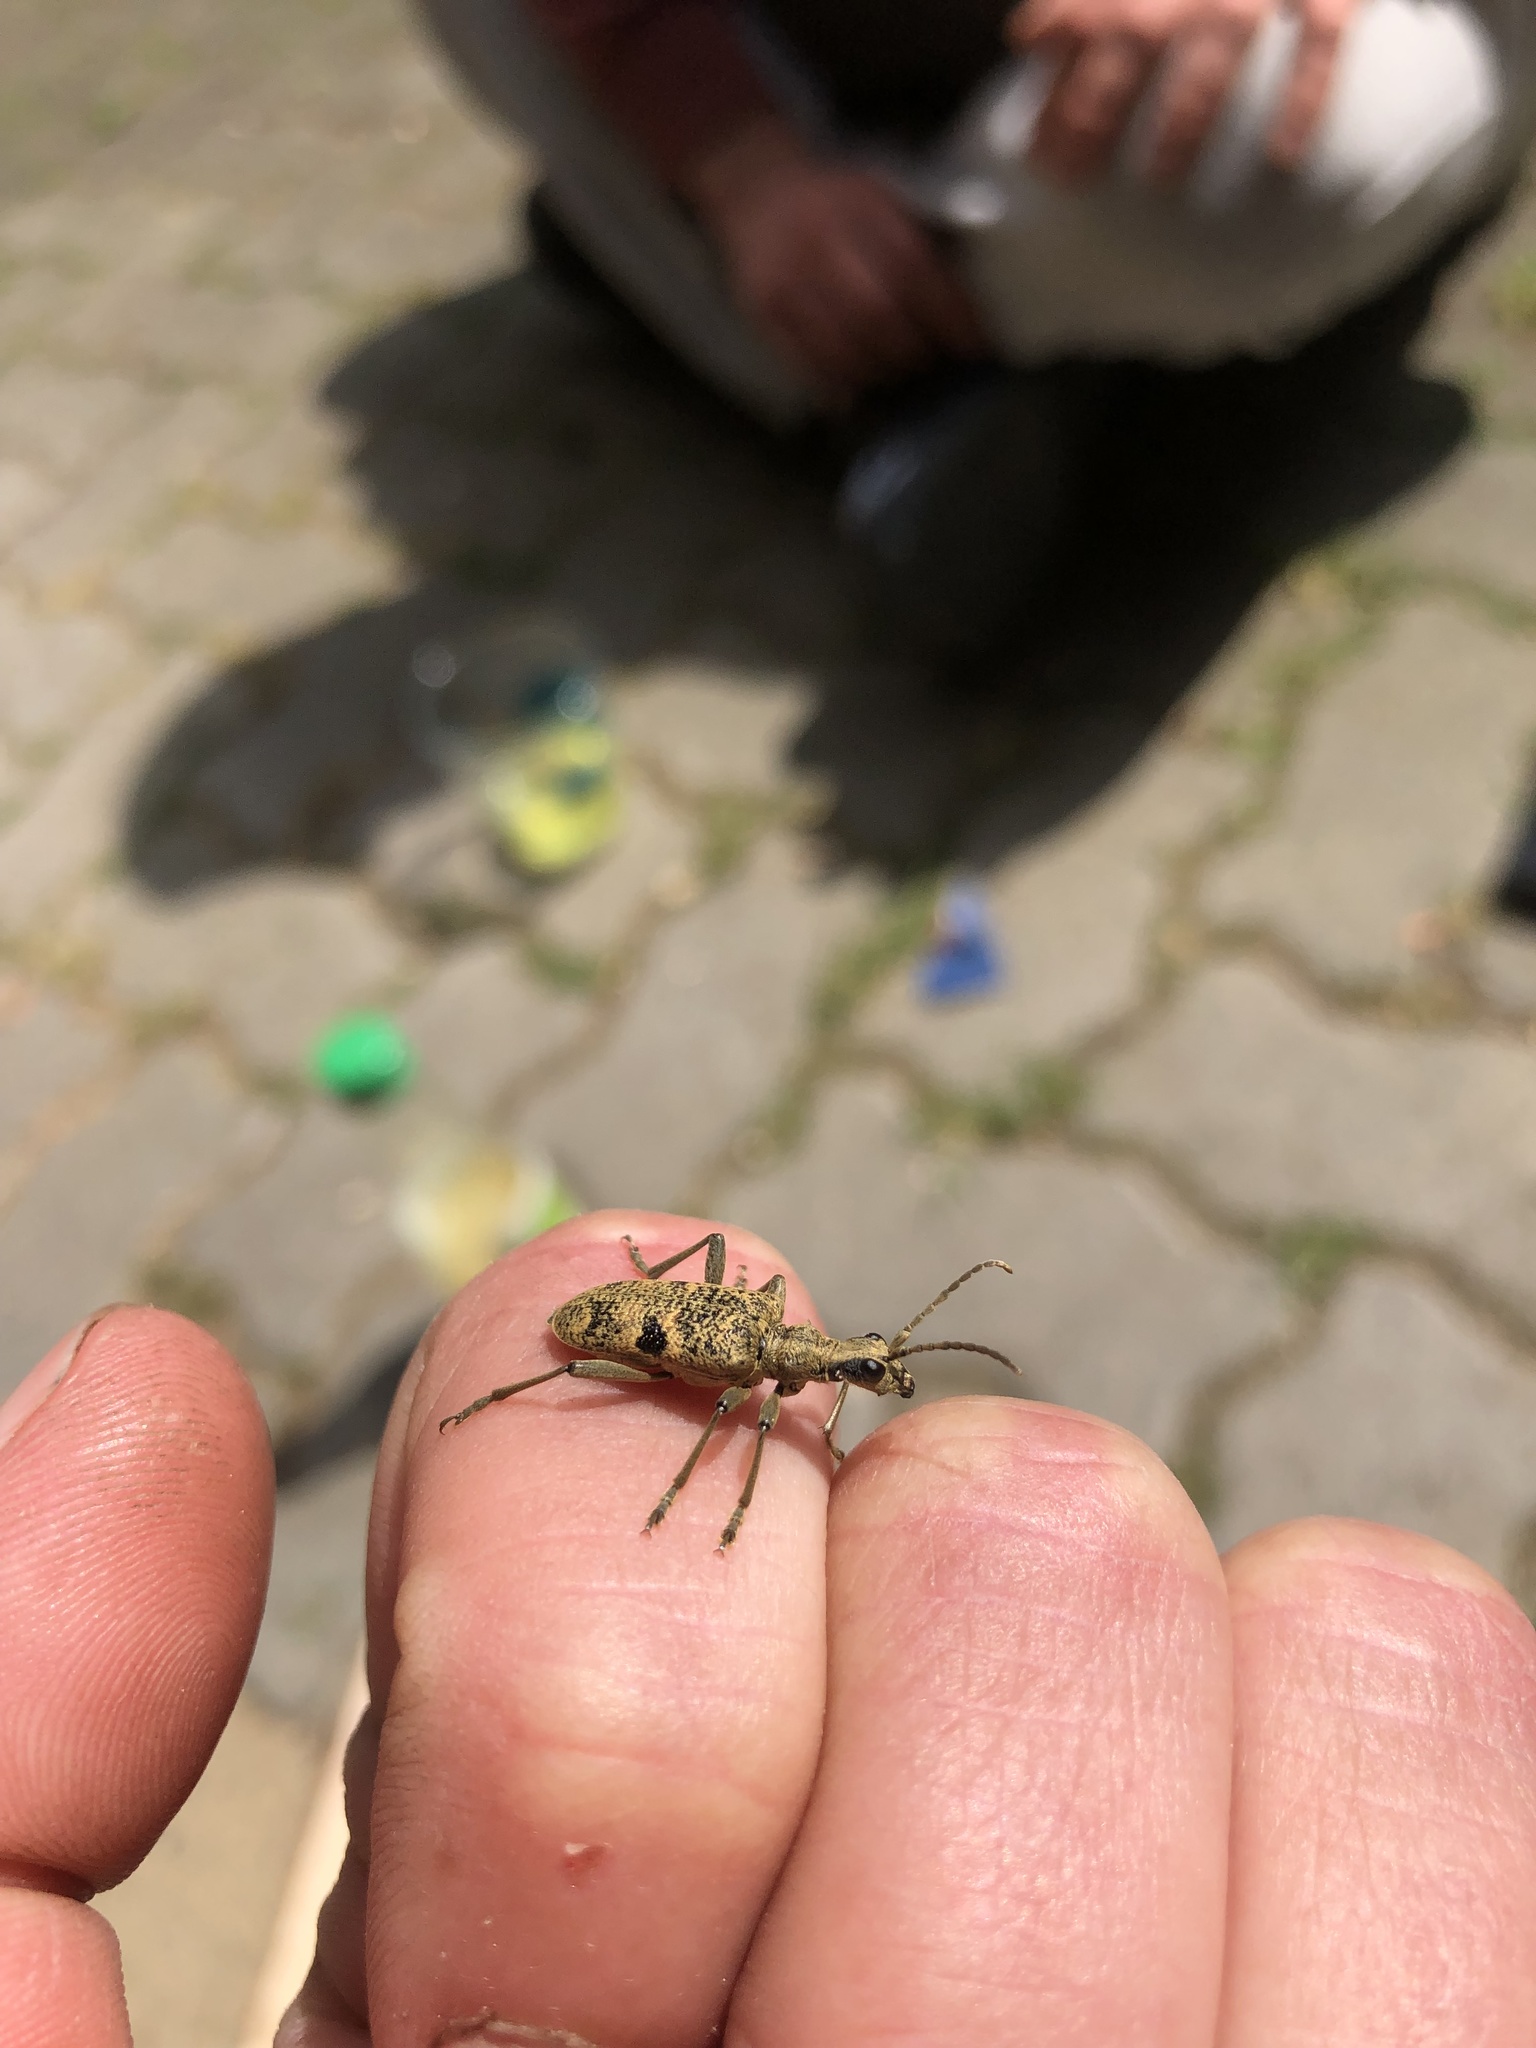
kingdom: Animalia
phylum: Arthropoda
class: Insecta
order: Coleoptera
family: Cerambycidae
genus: Rhagium
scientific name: Rhagium mordax
